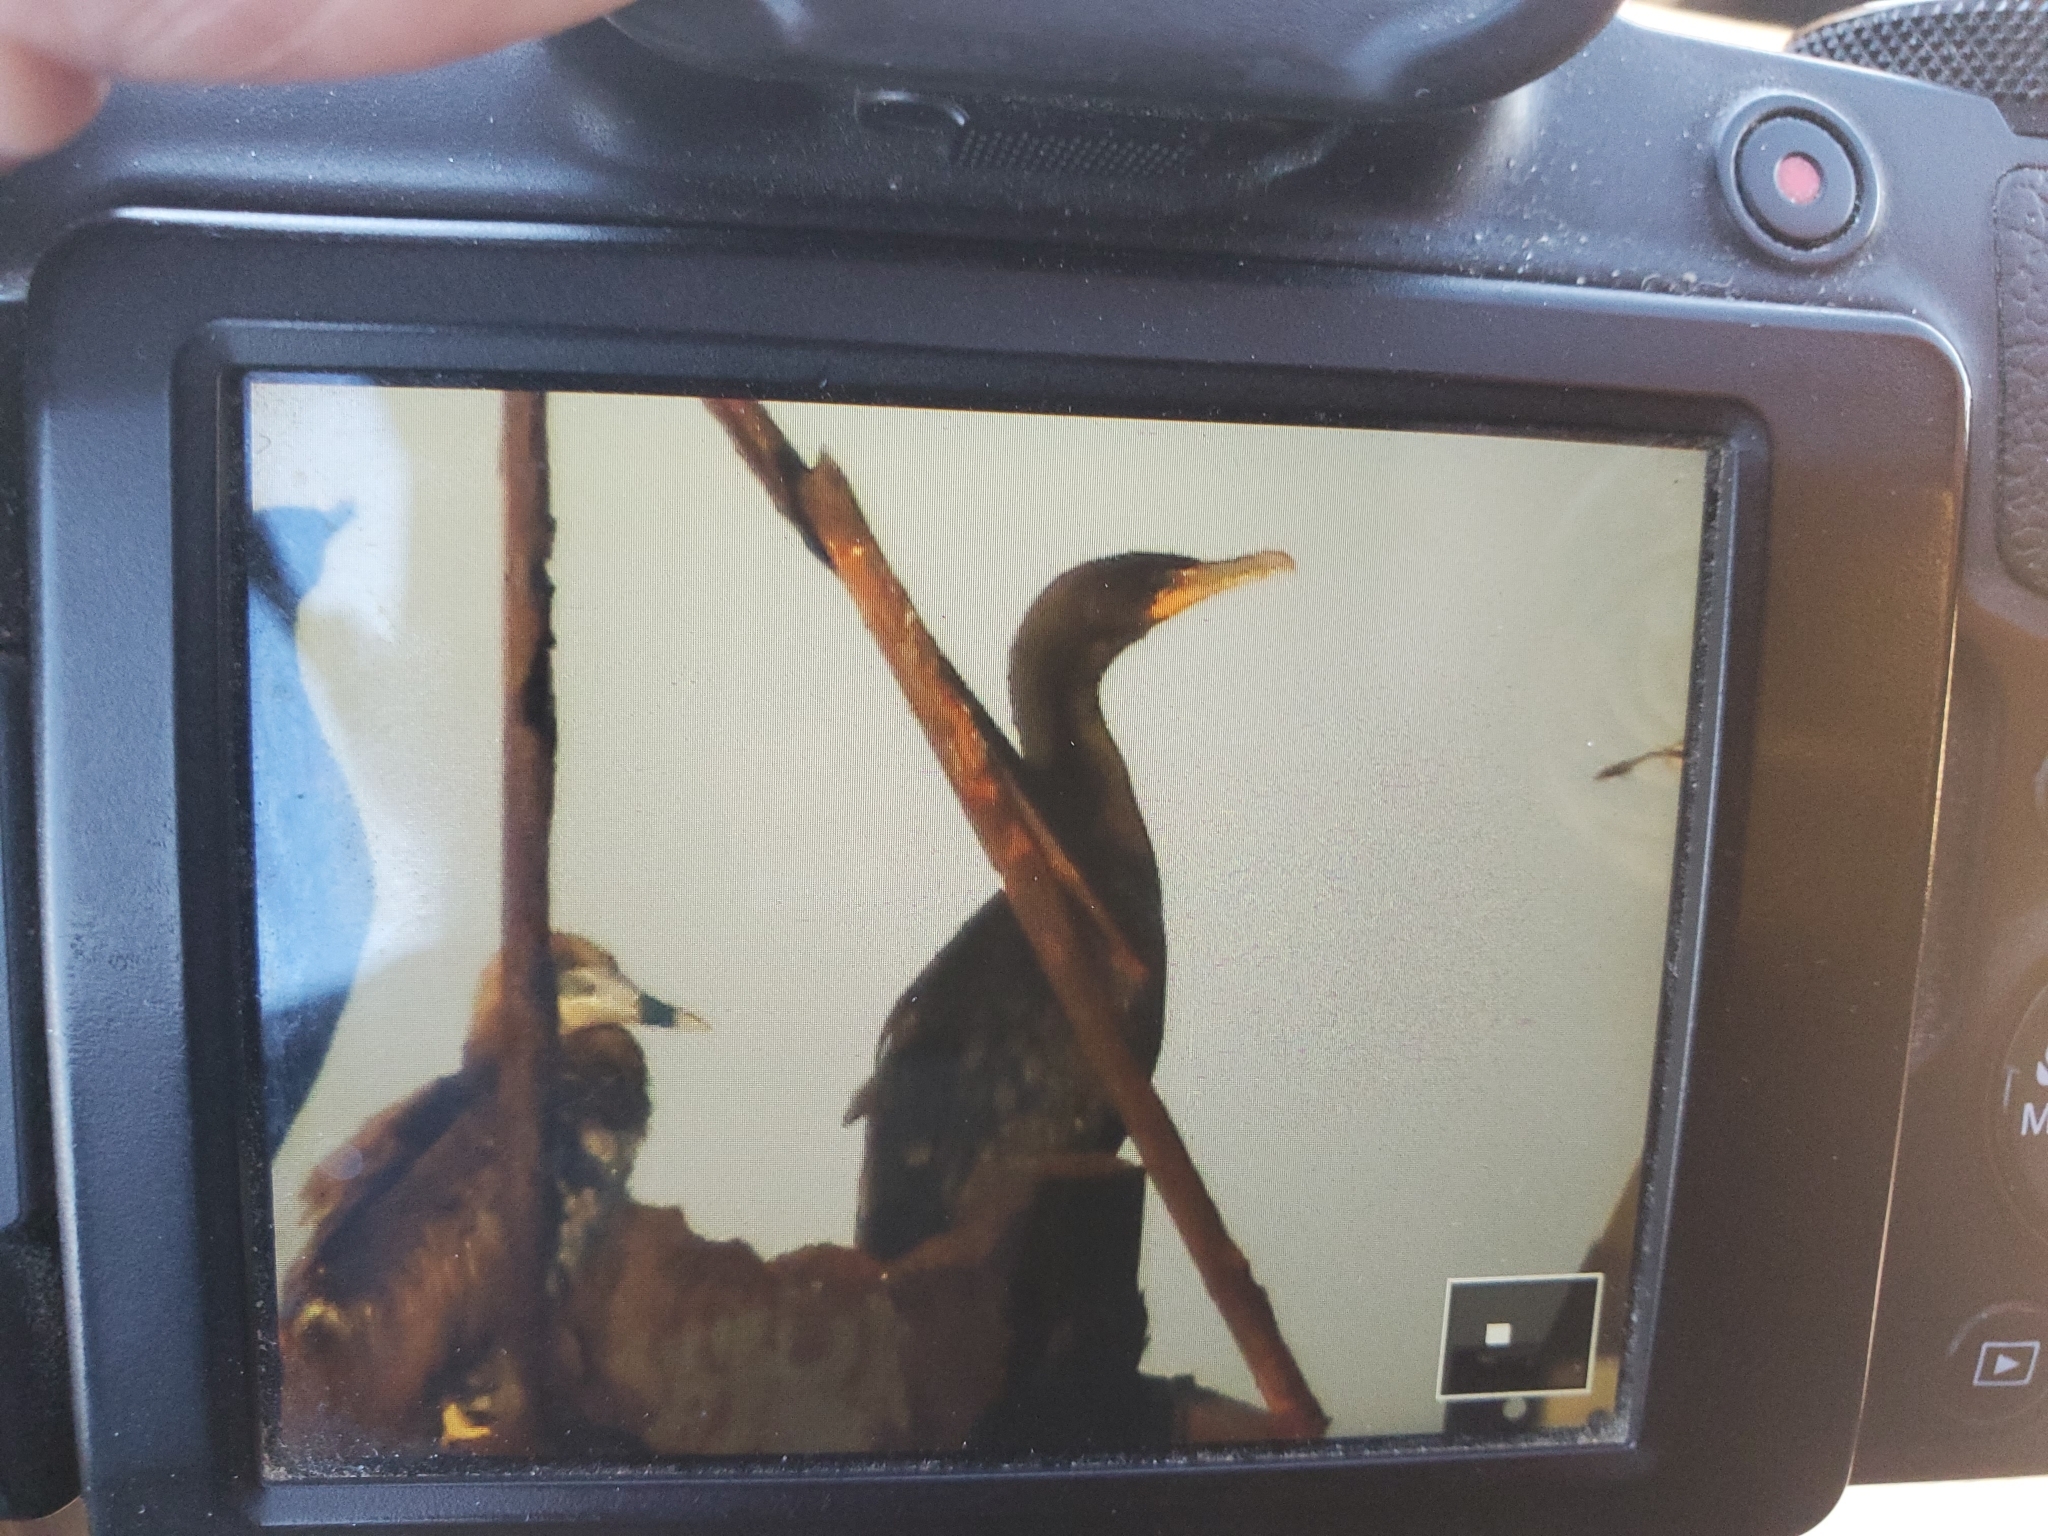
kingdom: Animalia
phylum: Chordata
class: Aves
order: Suliformes
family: Phalacrocoracidae
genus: Phalacrocorax
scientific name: Phalacrocorax auritus
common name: Double-crested cormorant
